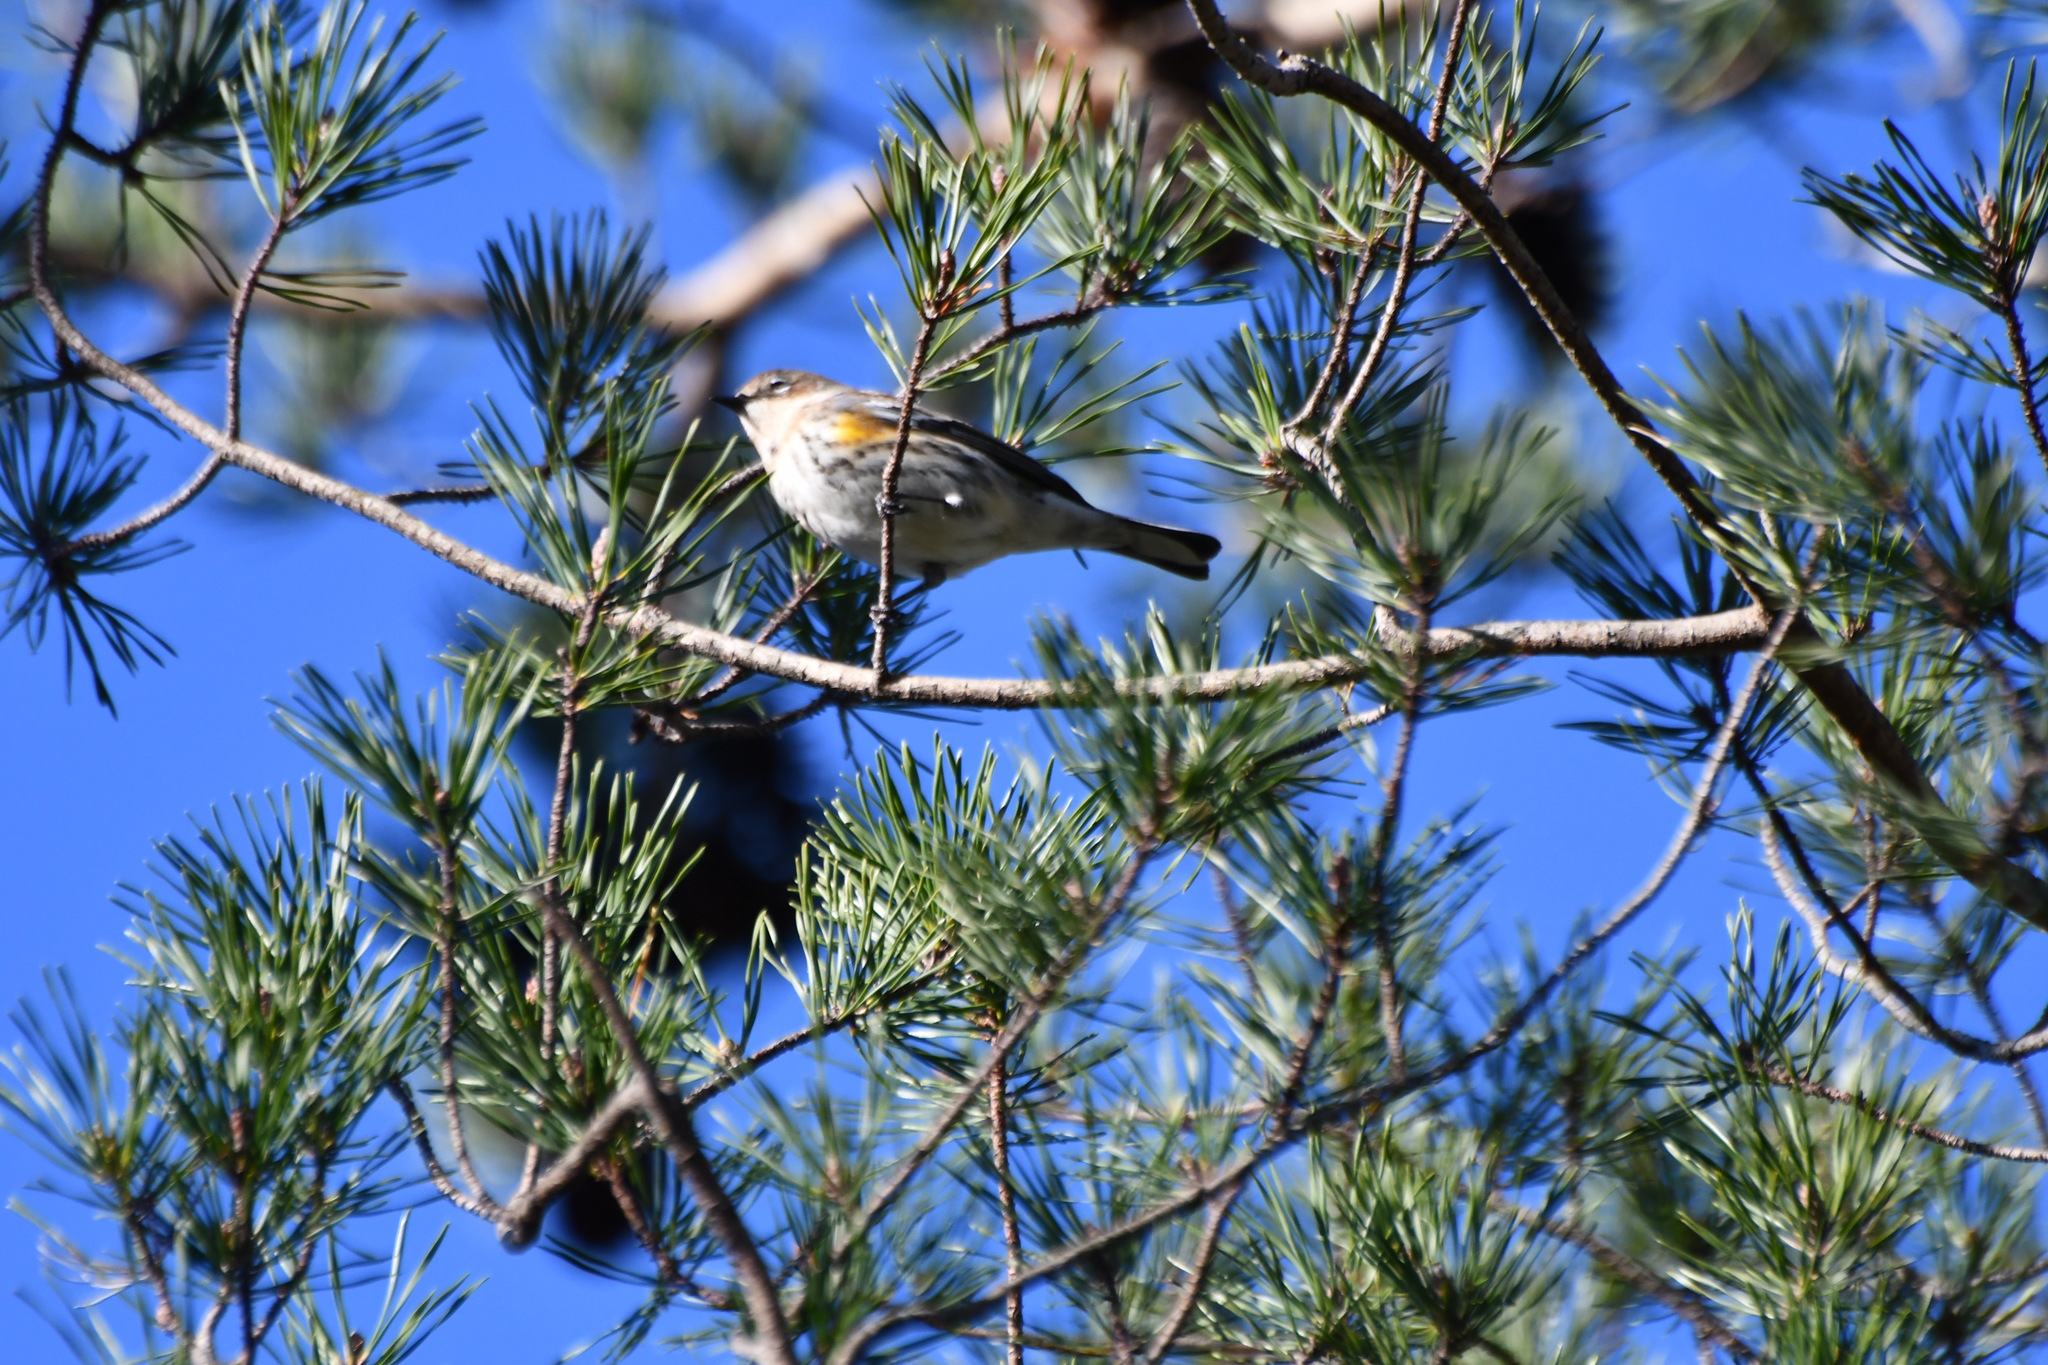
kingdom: Animalia
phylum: Chordata
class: Aves
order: Passeriformes
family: Parulidae
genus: Setophaga
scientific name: Setophaga coronata
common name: Myrtle warbler
